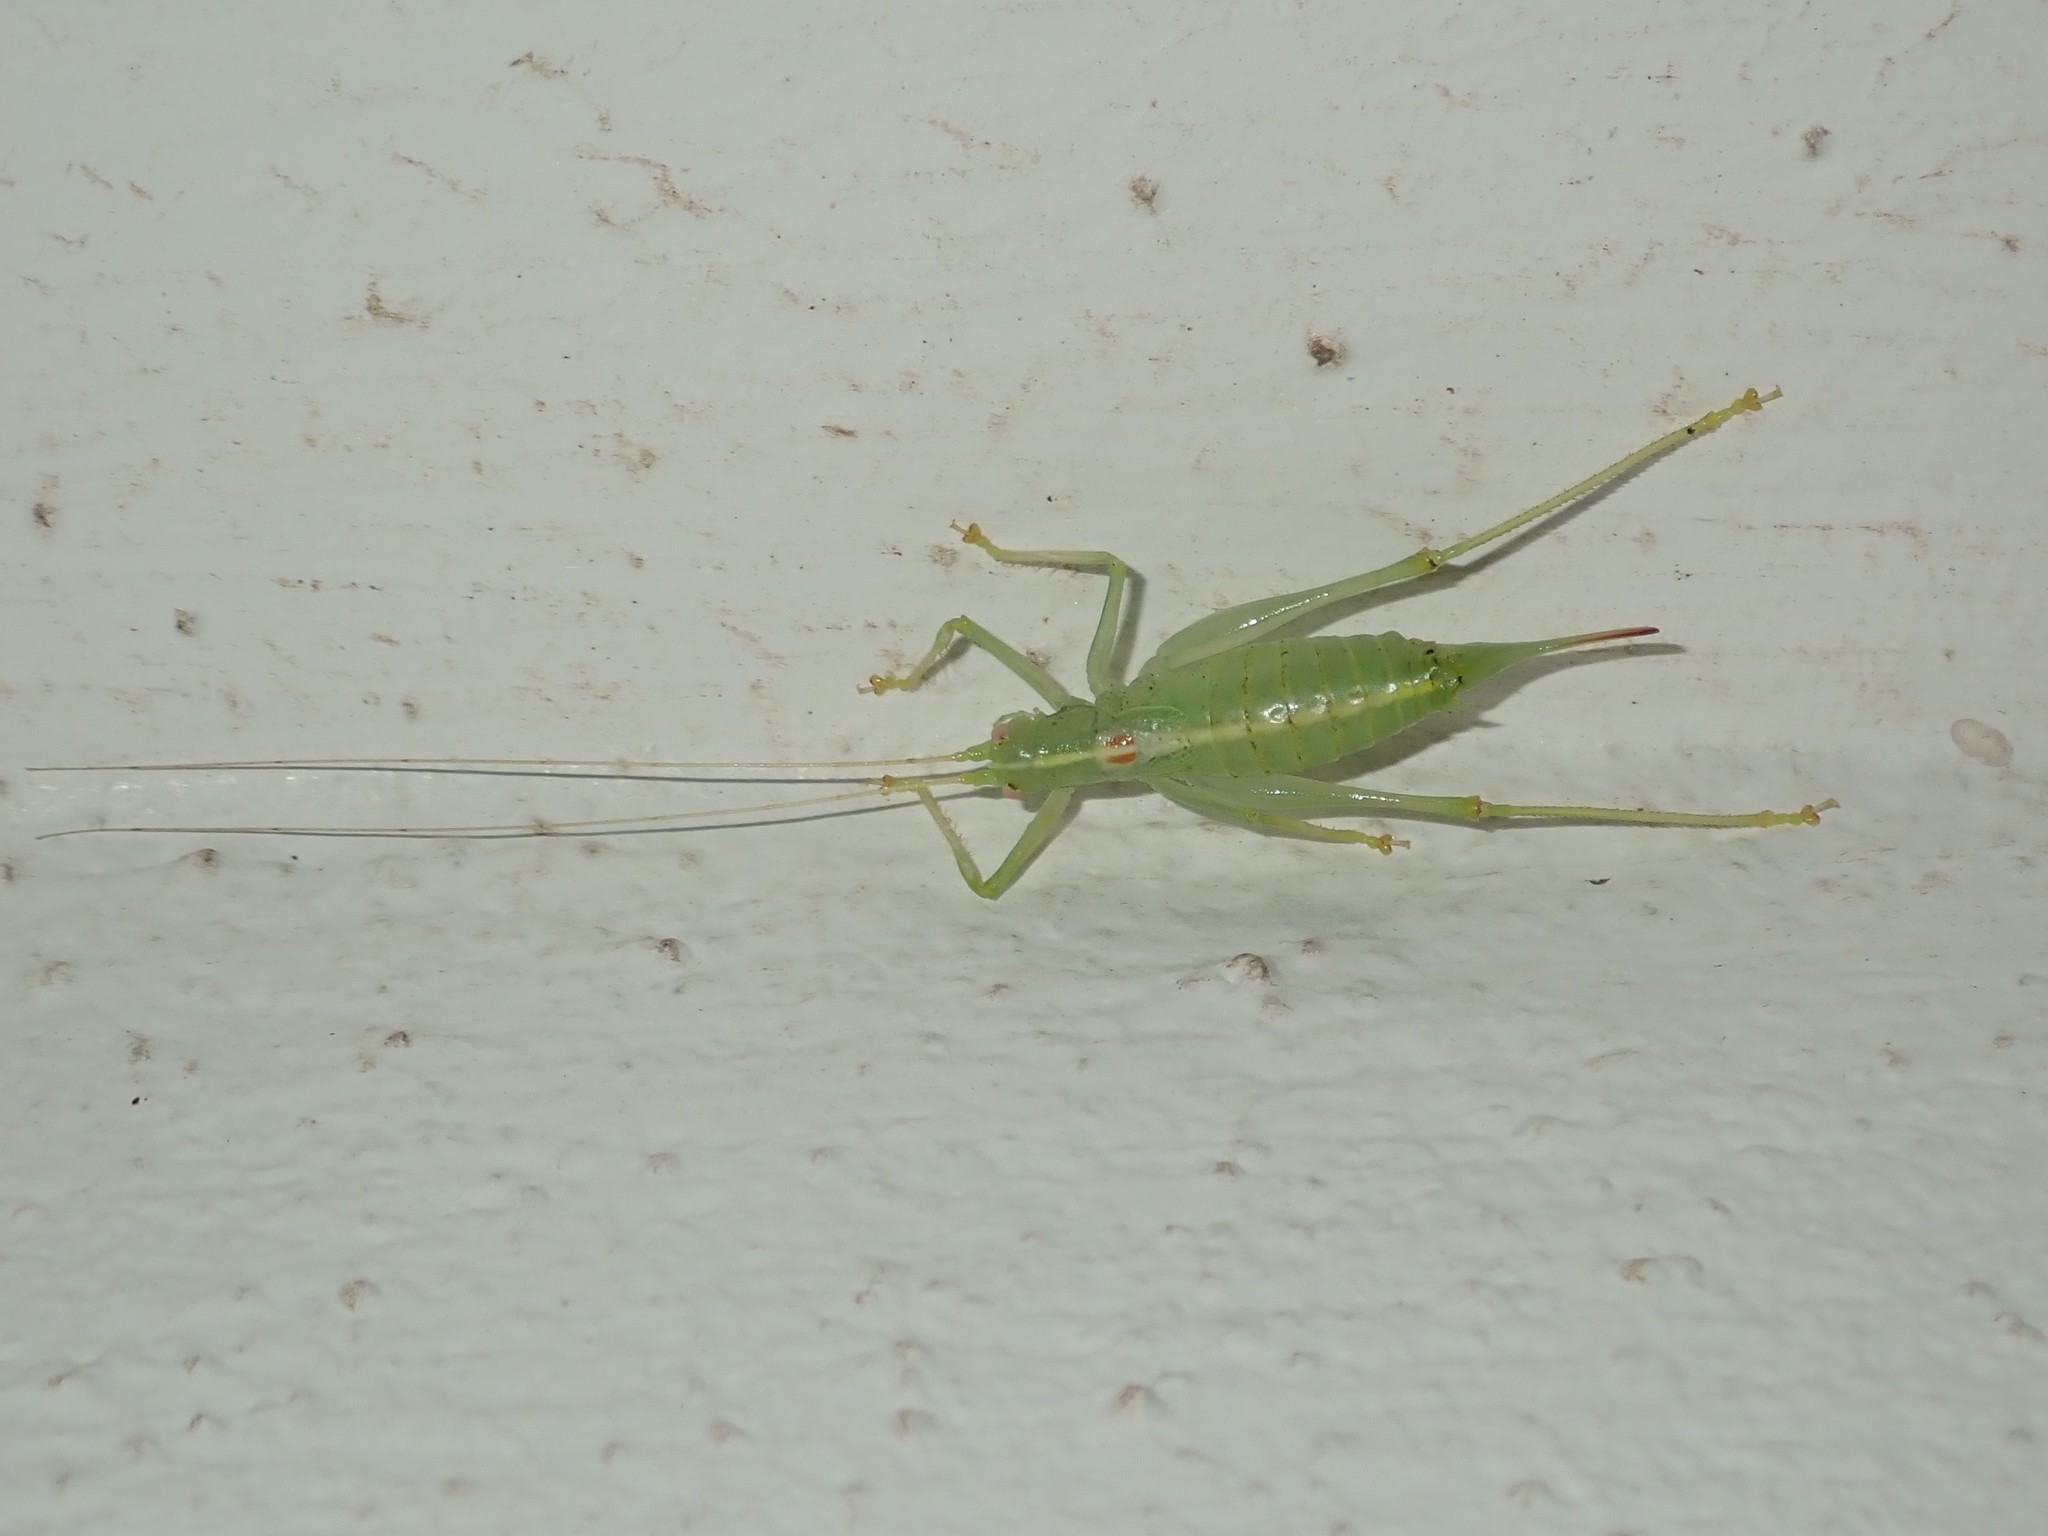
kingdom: Animalia
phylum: Arthropoda
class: Insecta
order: Orthoptera
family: Tettigoniidae
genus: Meconema
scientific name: Meconema meridionale
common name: Southern oak bush-cricket
